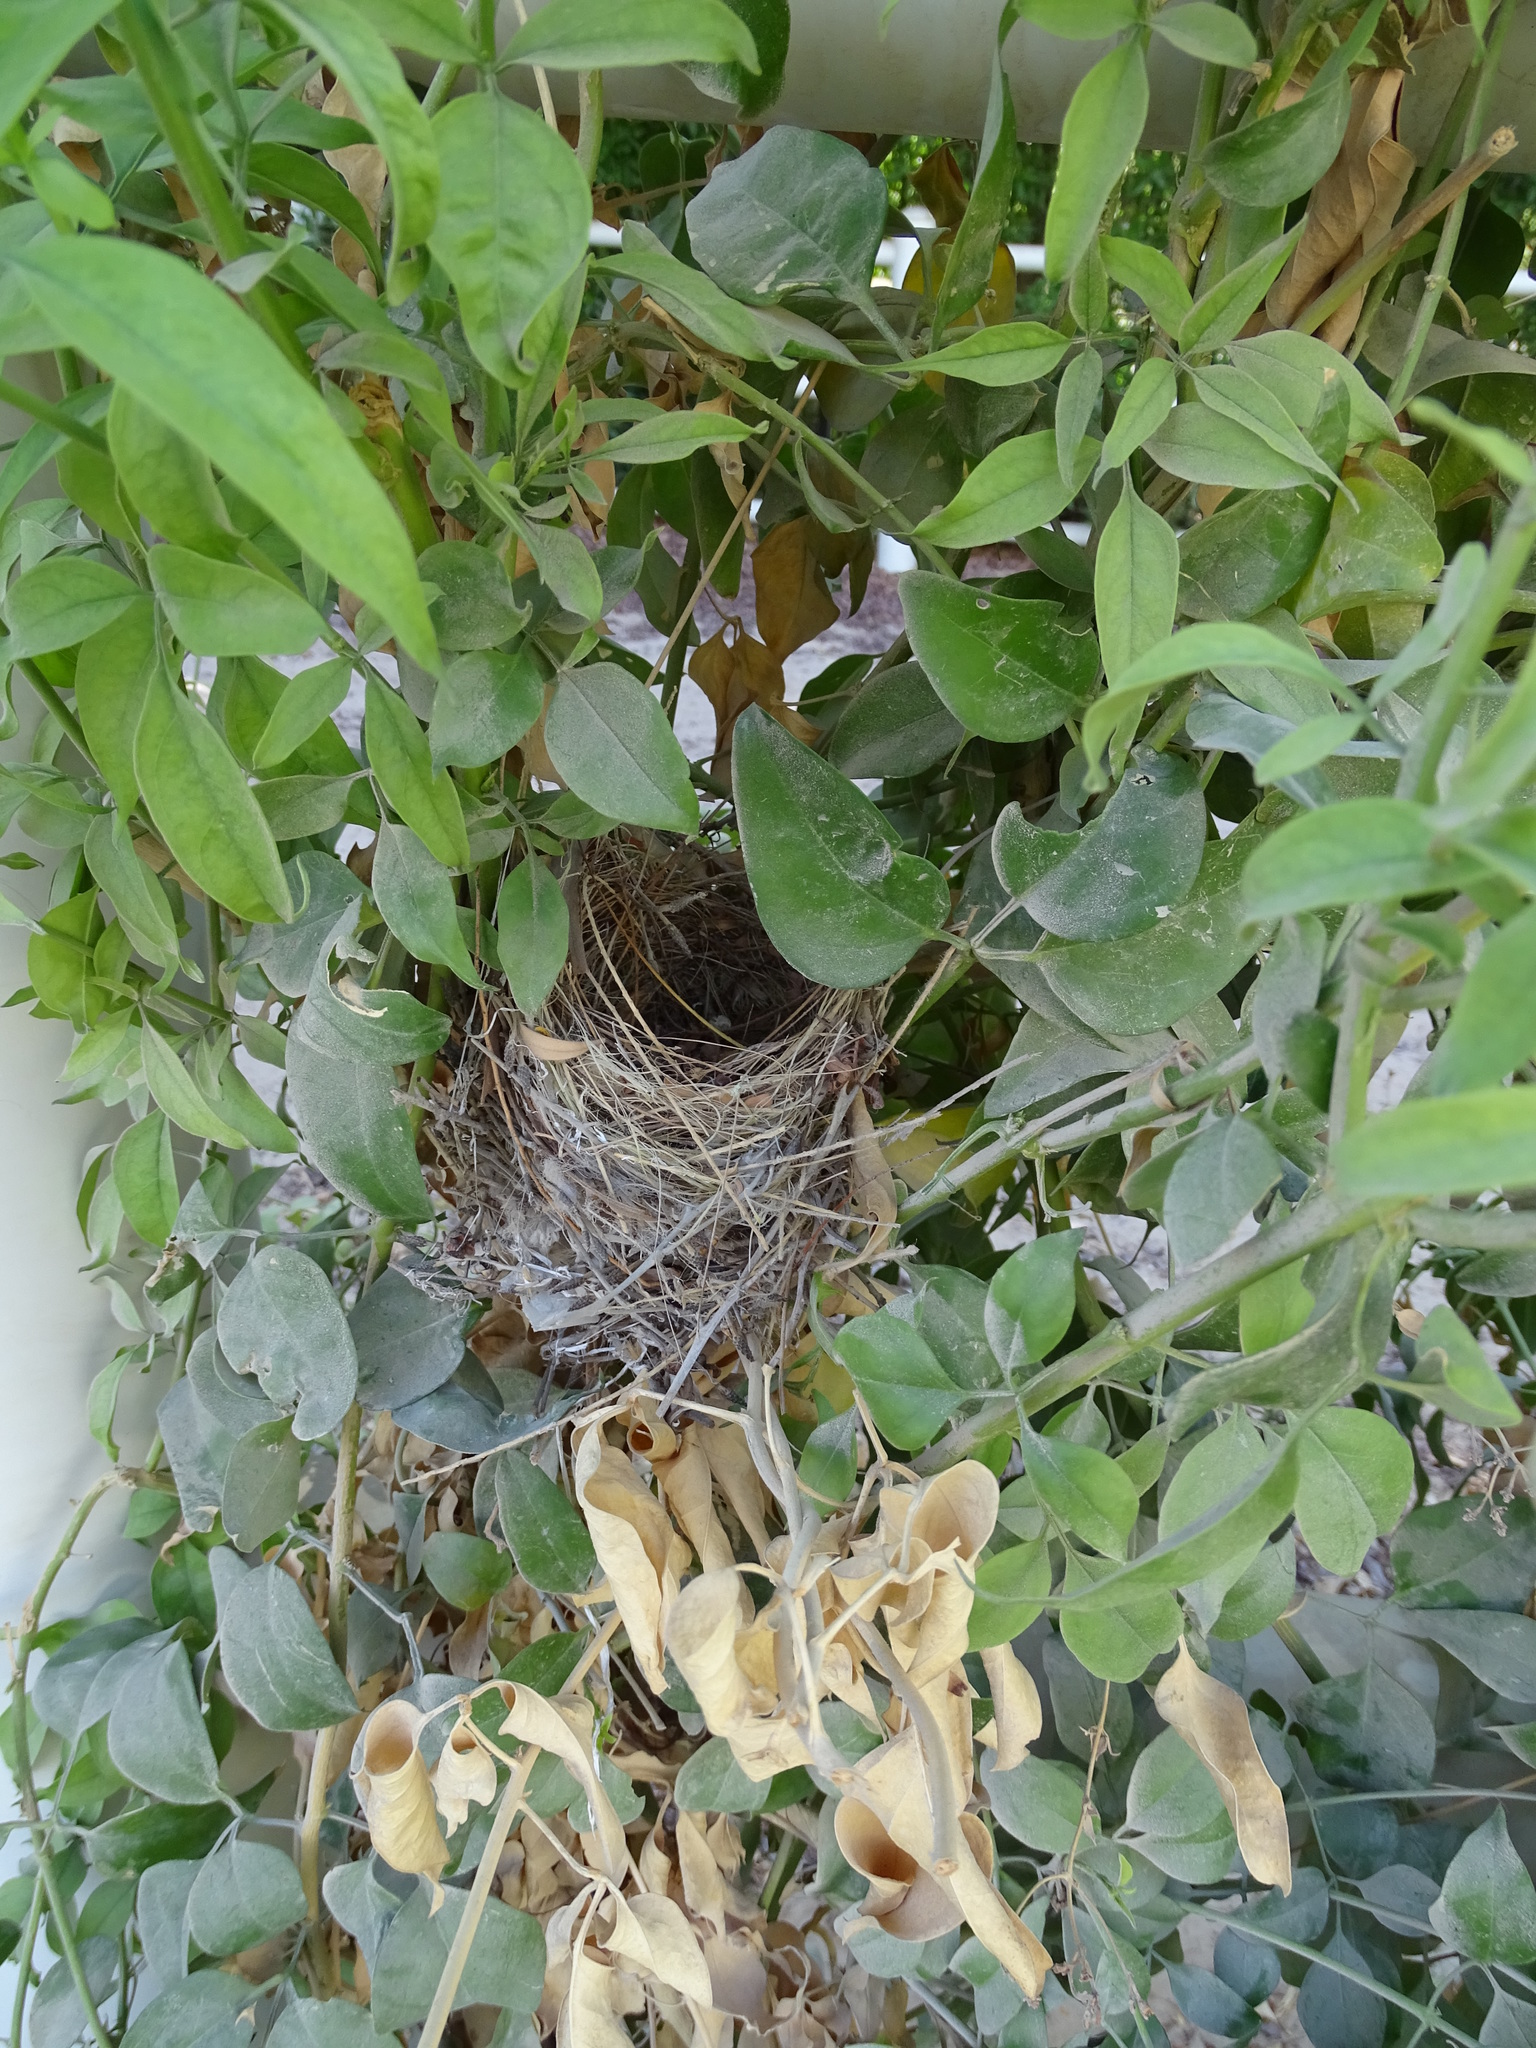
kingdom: Animalia
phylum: Chordata
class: Aves
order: Passeriformes
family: Pycnonotidae
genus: Pycnonotus
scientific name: Pycnonotus leucotis
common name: White-eared bulbul
